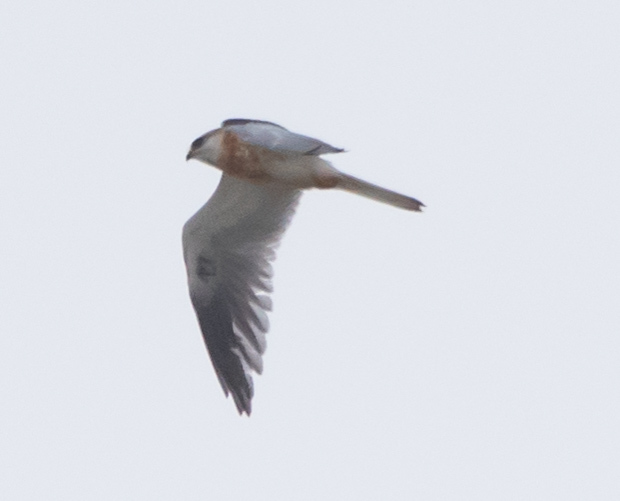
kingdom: Animalia
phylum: Chordata
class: Aves
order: Accipitriformes
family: Accipitridae
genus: Elanus
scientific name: Elanus leucurus
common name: White-tailed kite
